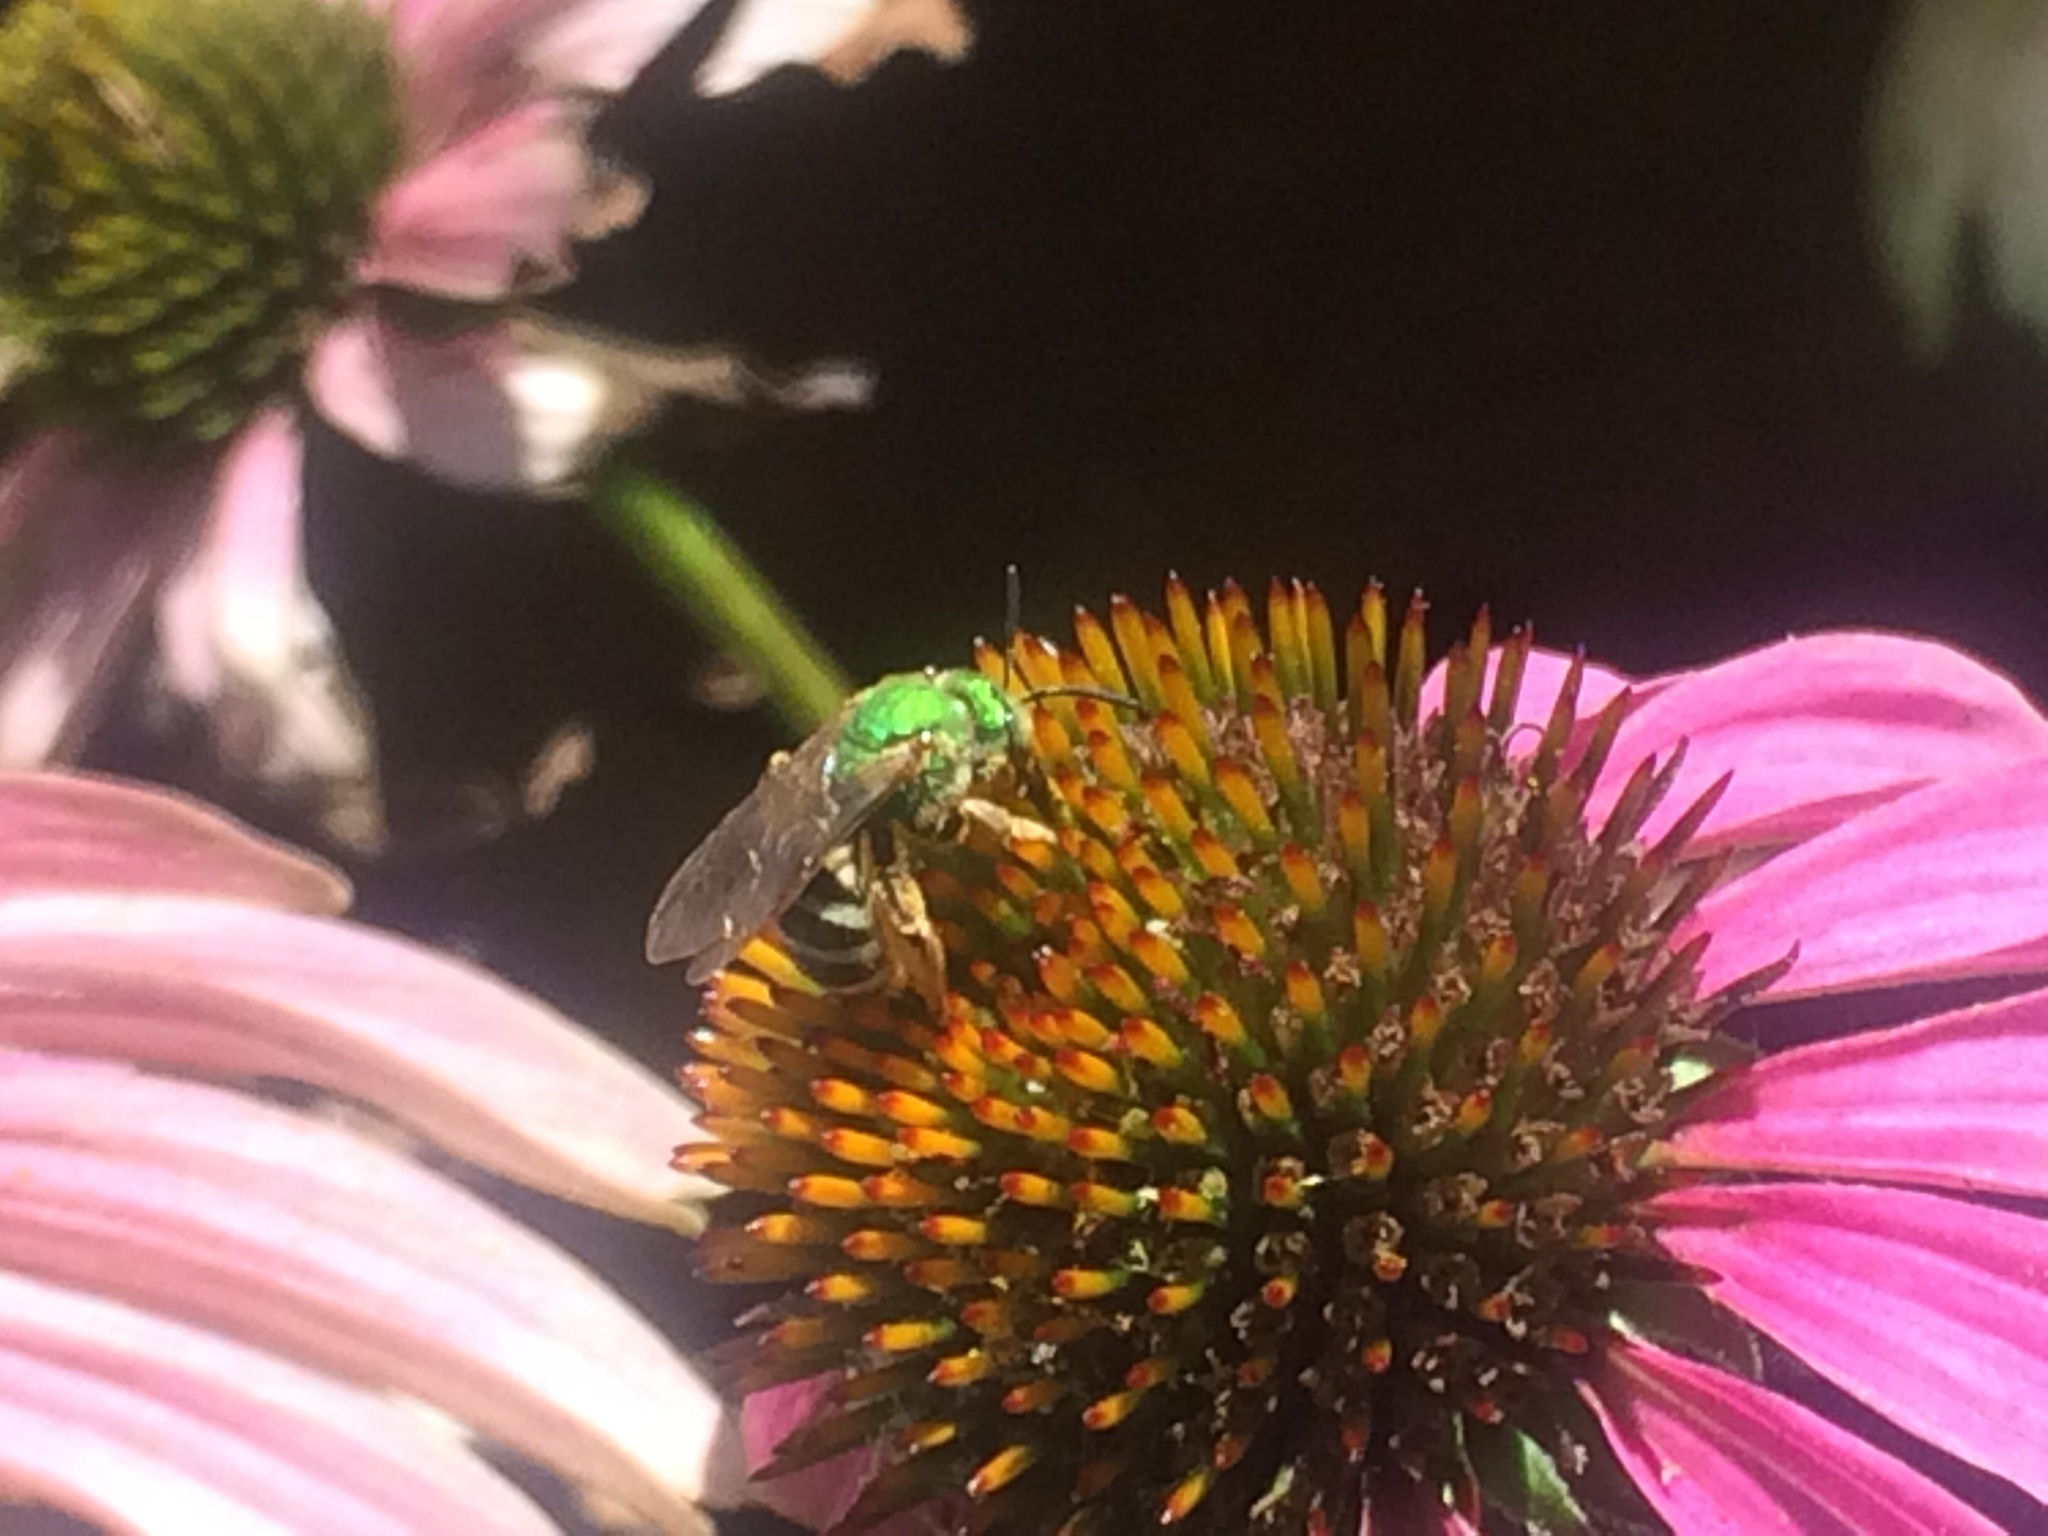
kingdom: Animalia
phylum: Arthropoda
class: Insecta
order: Hymenoptera
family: Halictidae
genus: Agapostemon
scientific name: Agapostemon virescens
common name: Bicolored striped sweat bee
